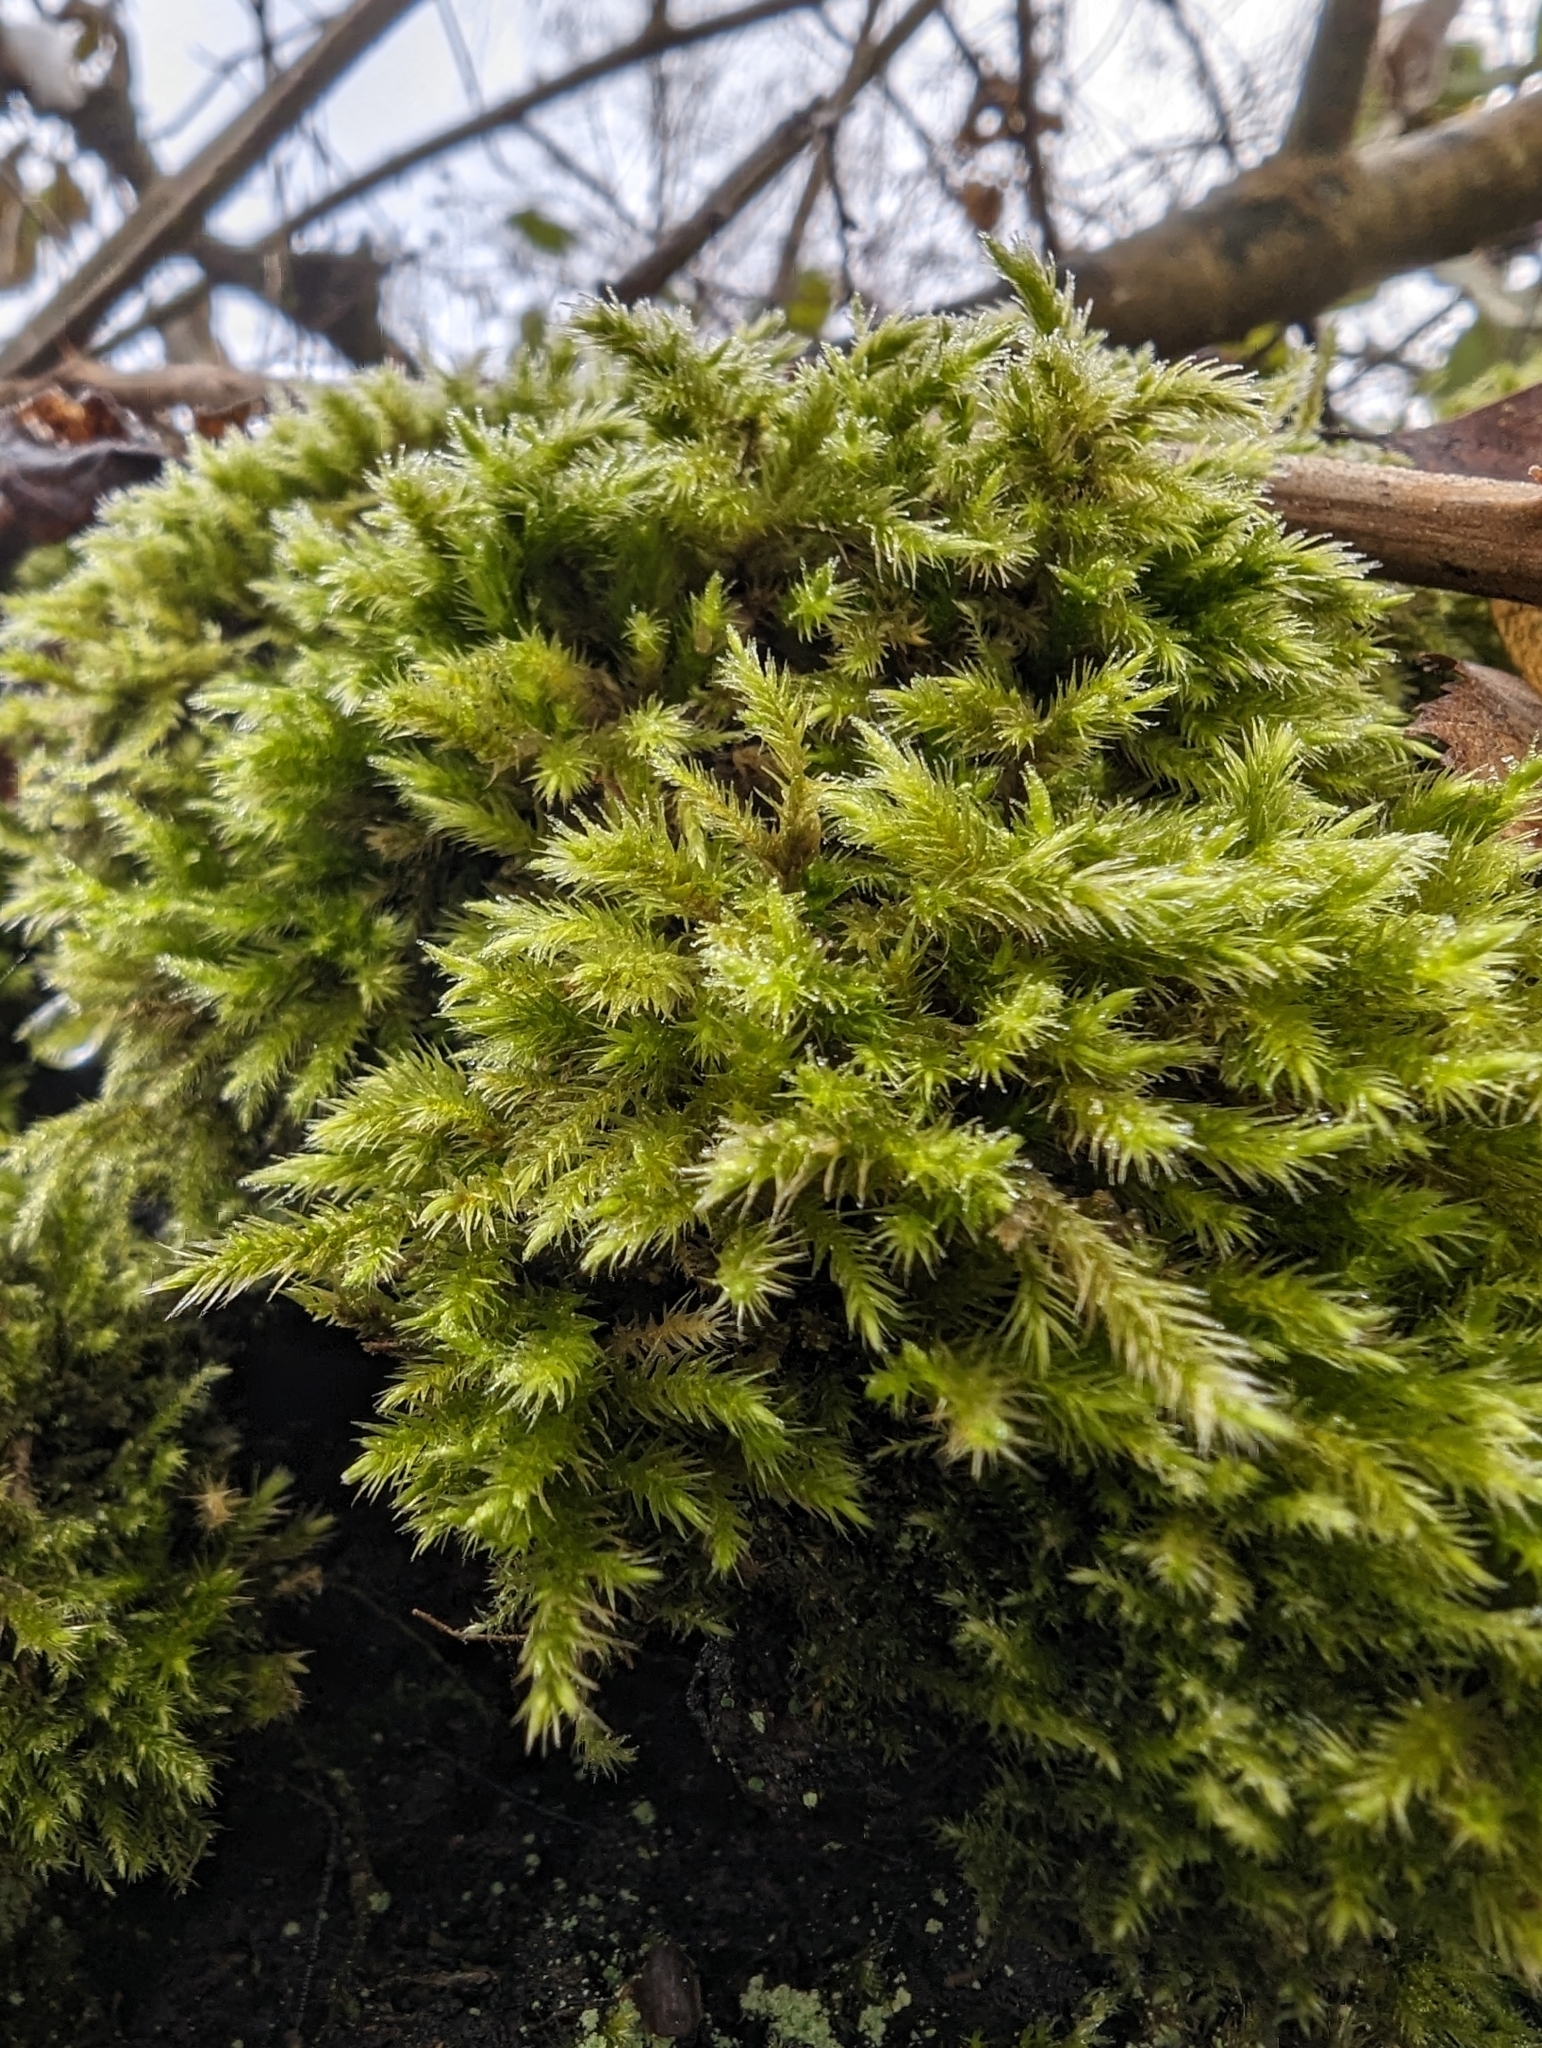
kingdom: Plantae
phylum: Bryophyta
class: Bryopsida
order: Hypnales
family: Brachytheciaceae
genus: Homalothecium
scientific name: Homalothecium fulgescens
